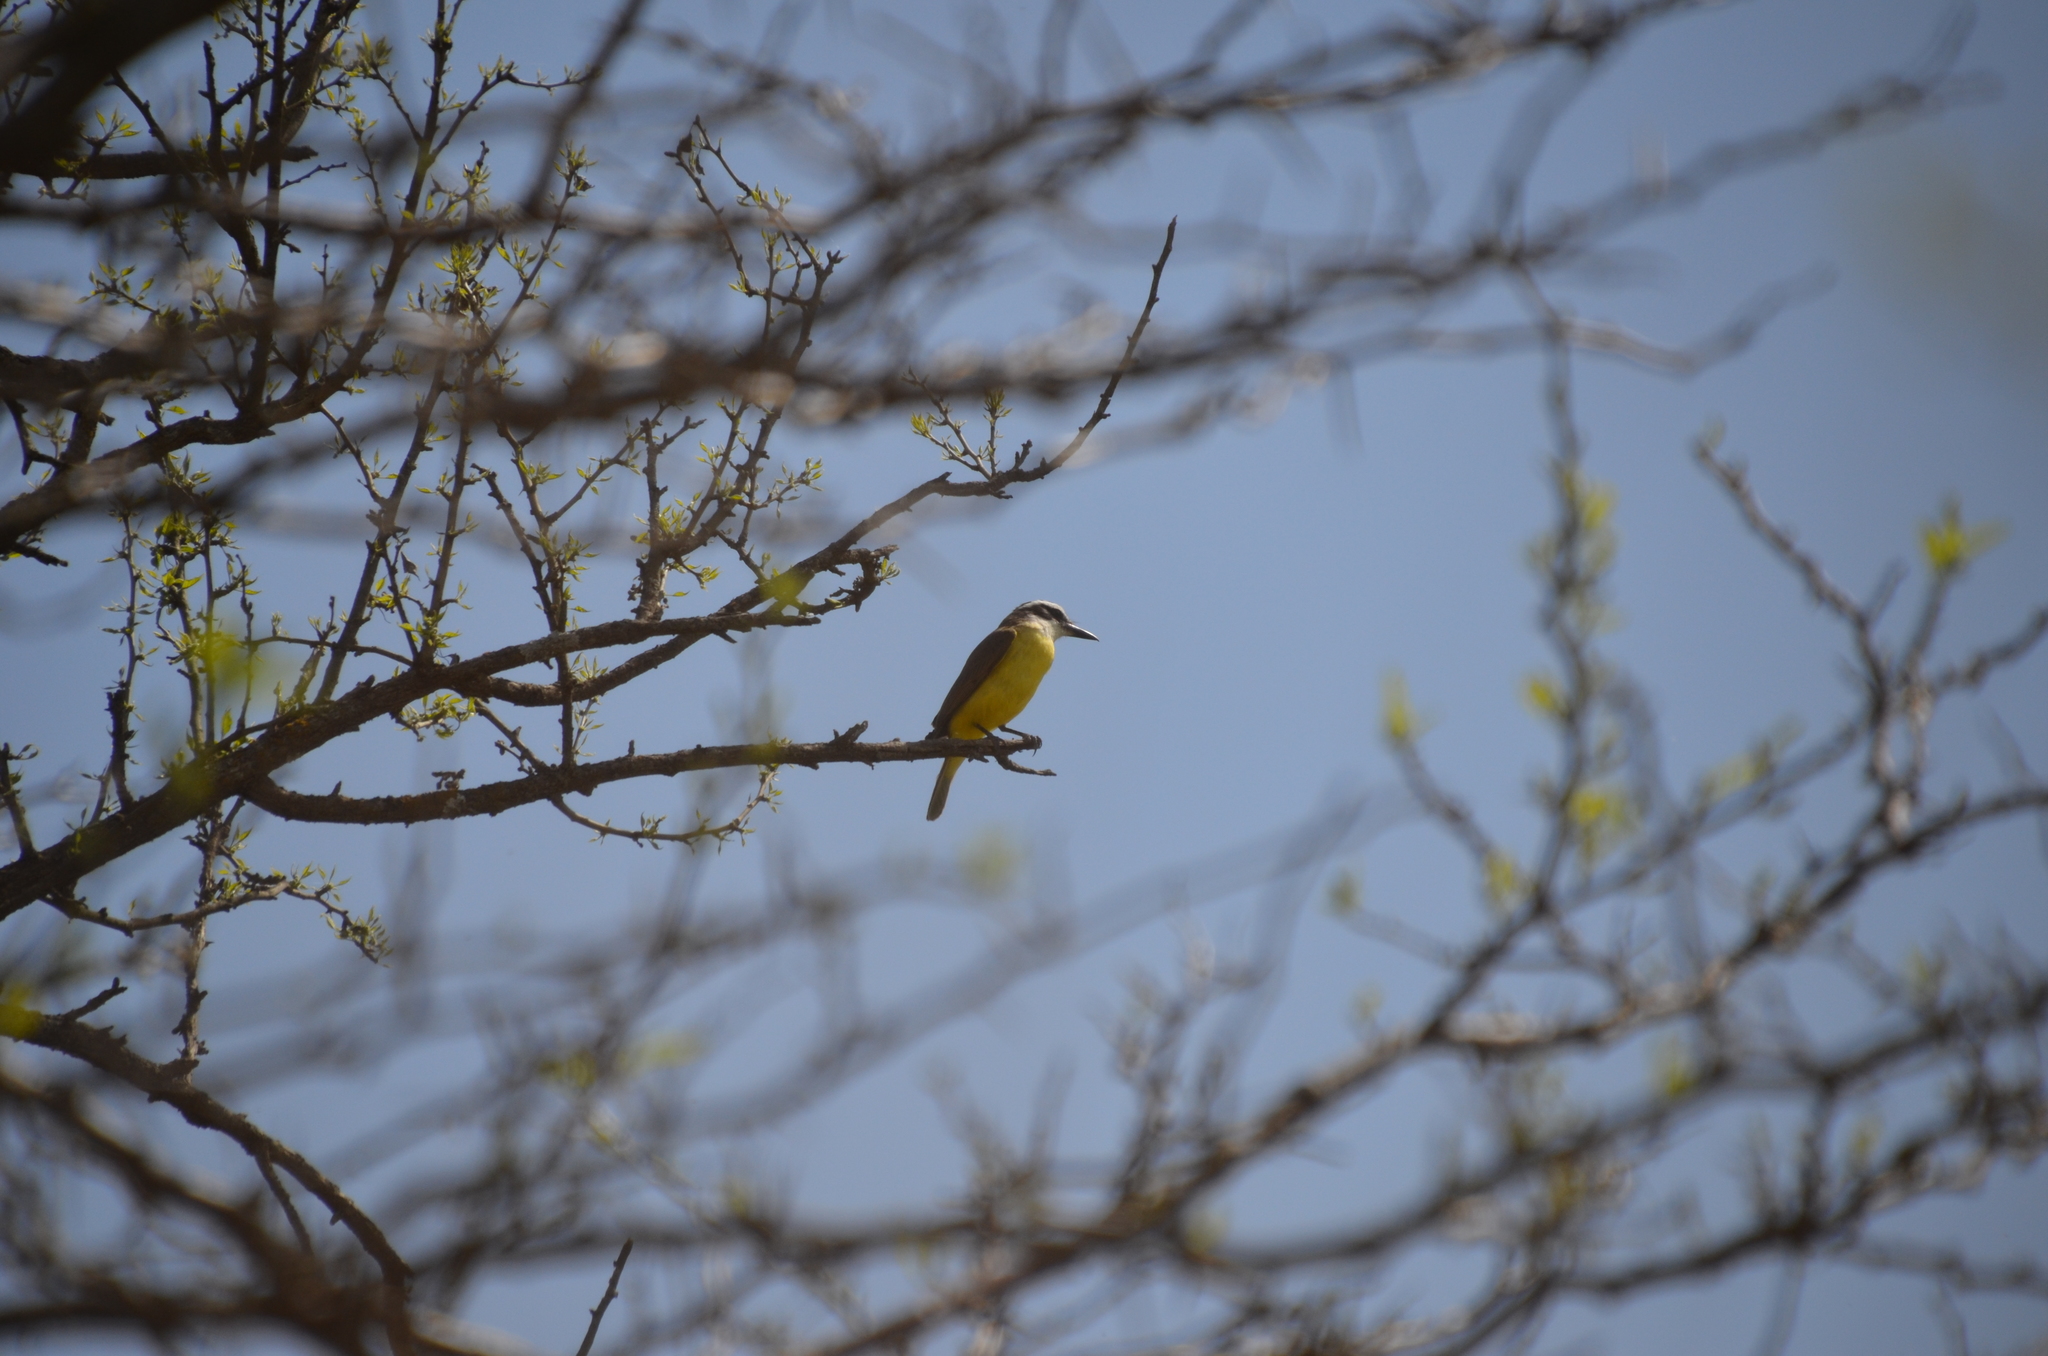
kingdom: Animalia
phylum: Chordata
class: Aves
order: Passeriformes
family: Tyrannidae
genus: Pitangus
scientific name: Pitangus sulphuratus
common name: Great kiskadee
